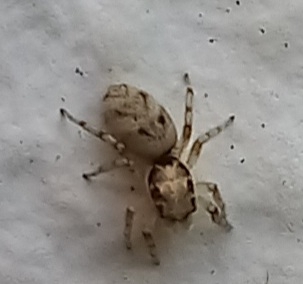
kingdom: Animalia
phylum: Arthropoda
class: Arachnida
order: Araneae
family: Salticidae
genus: Salticus
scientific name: Salticus mutabilis
